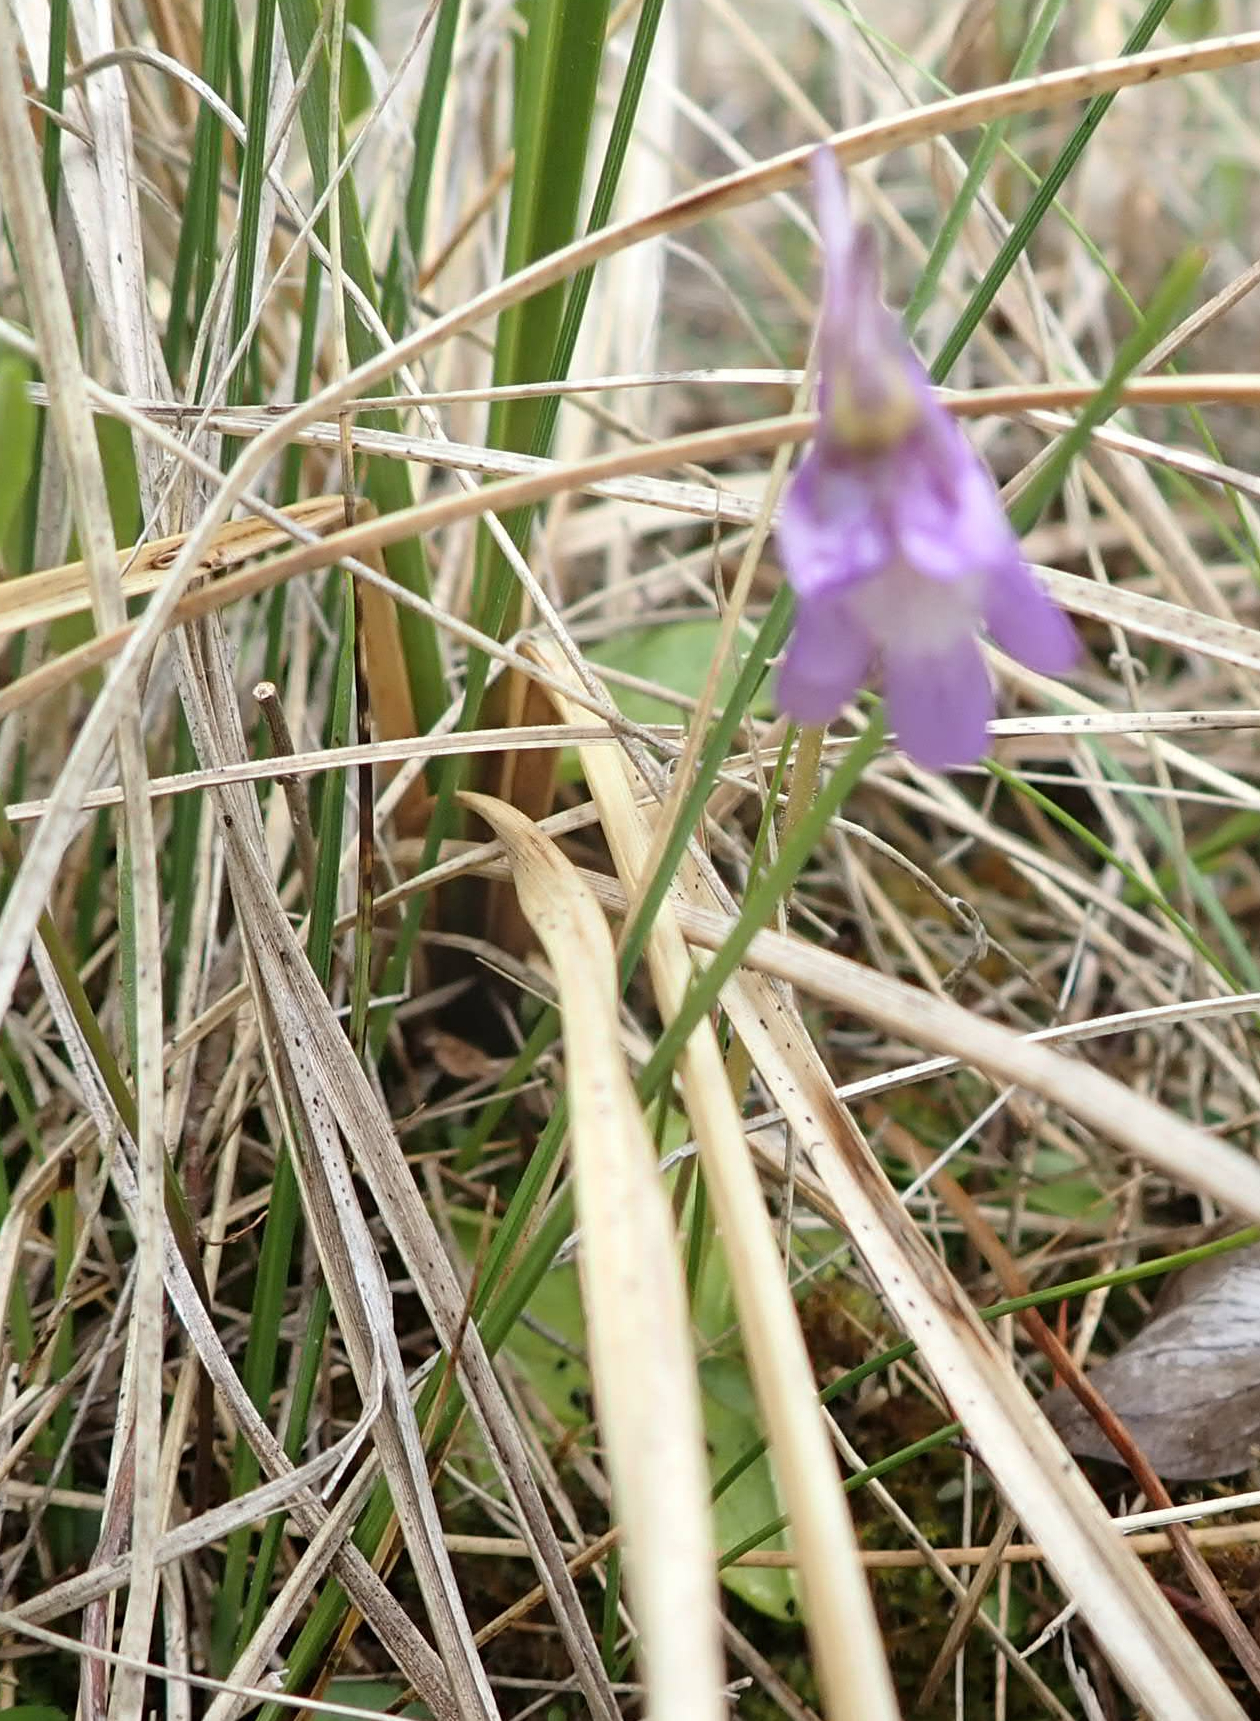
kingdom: Plantae
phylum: Tracheophyta
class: Magnoliopsida
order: Lamiales
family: Lentibulariaceae
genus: Pinguicula
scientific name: Pinguicula vulgaris
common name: Common butterwort
